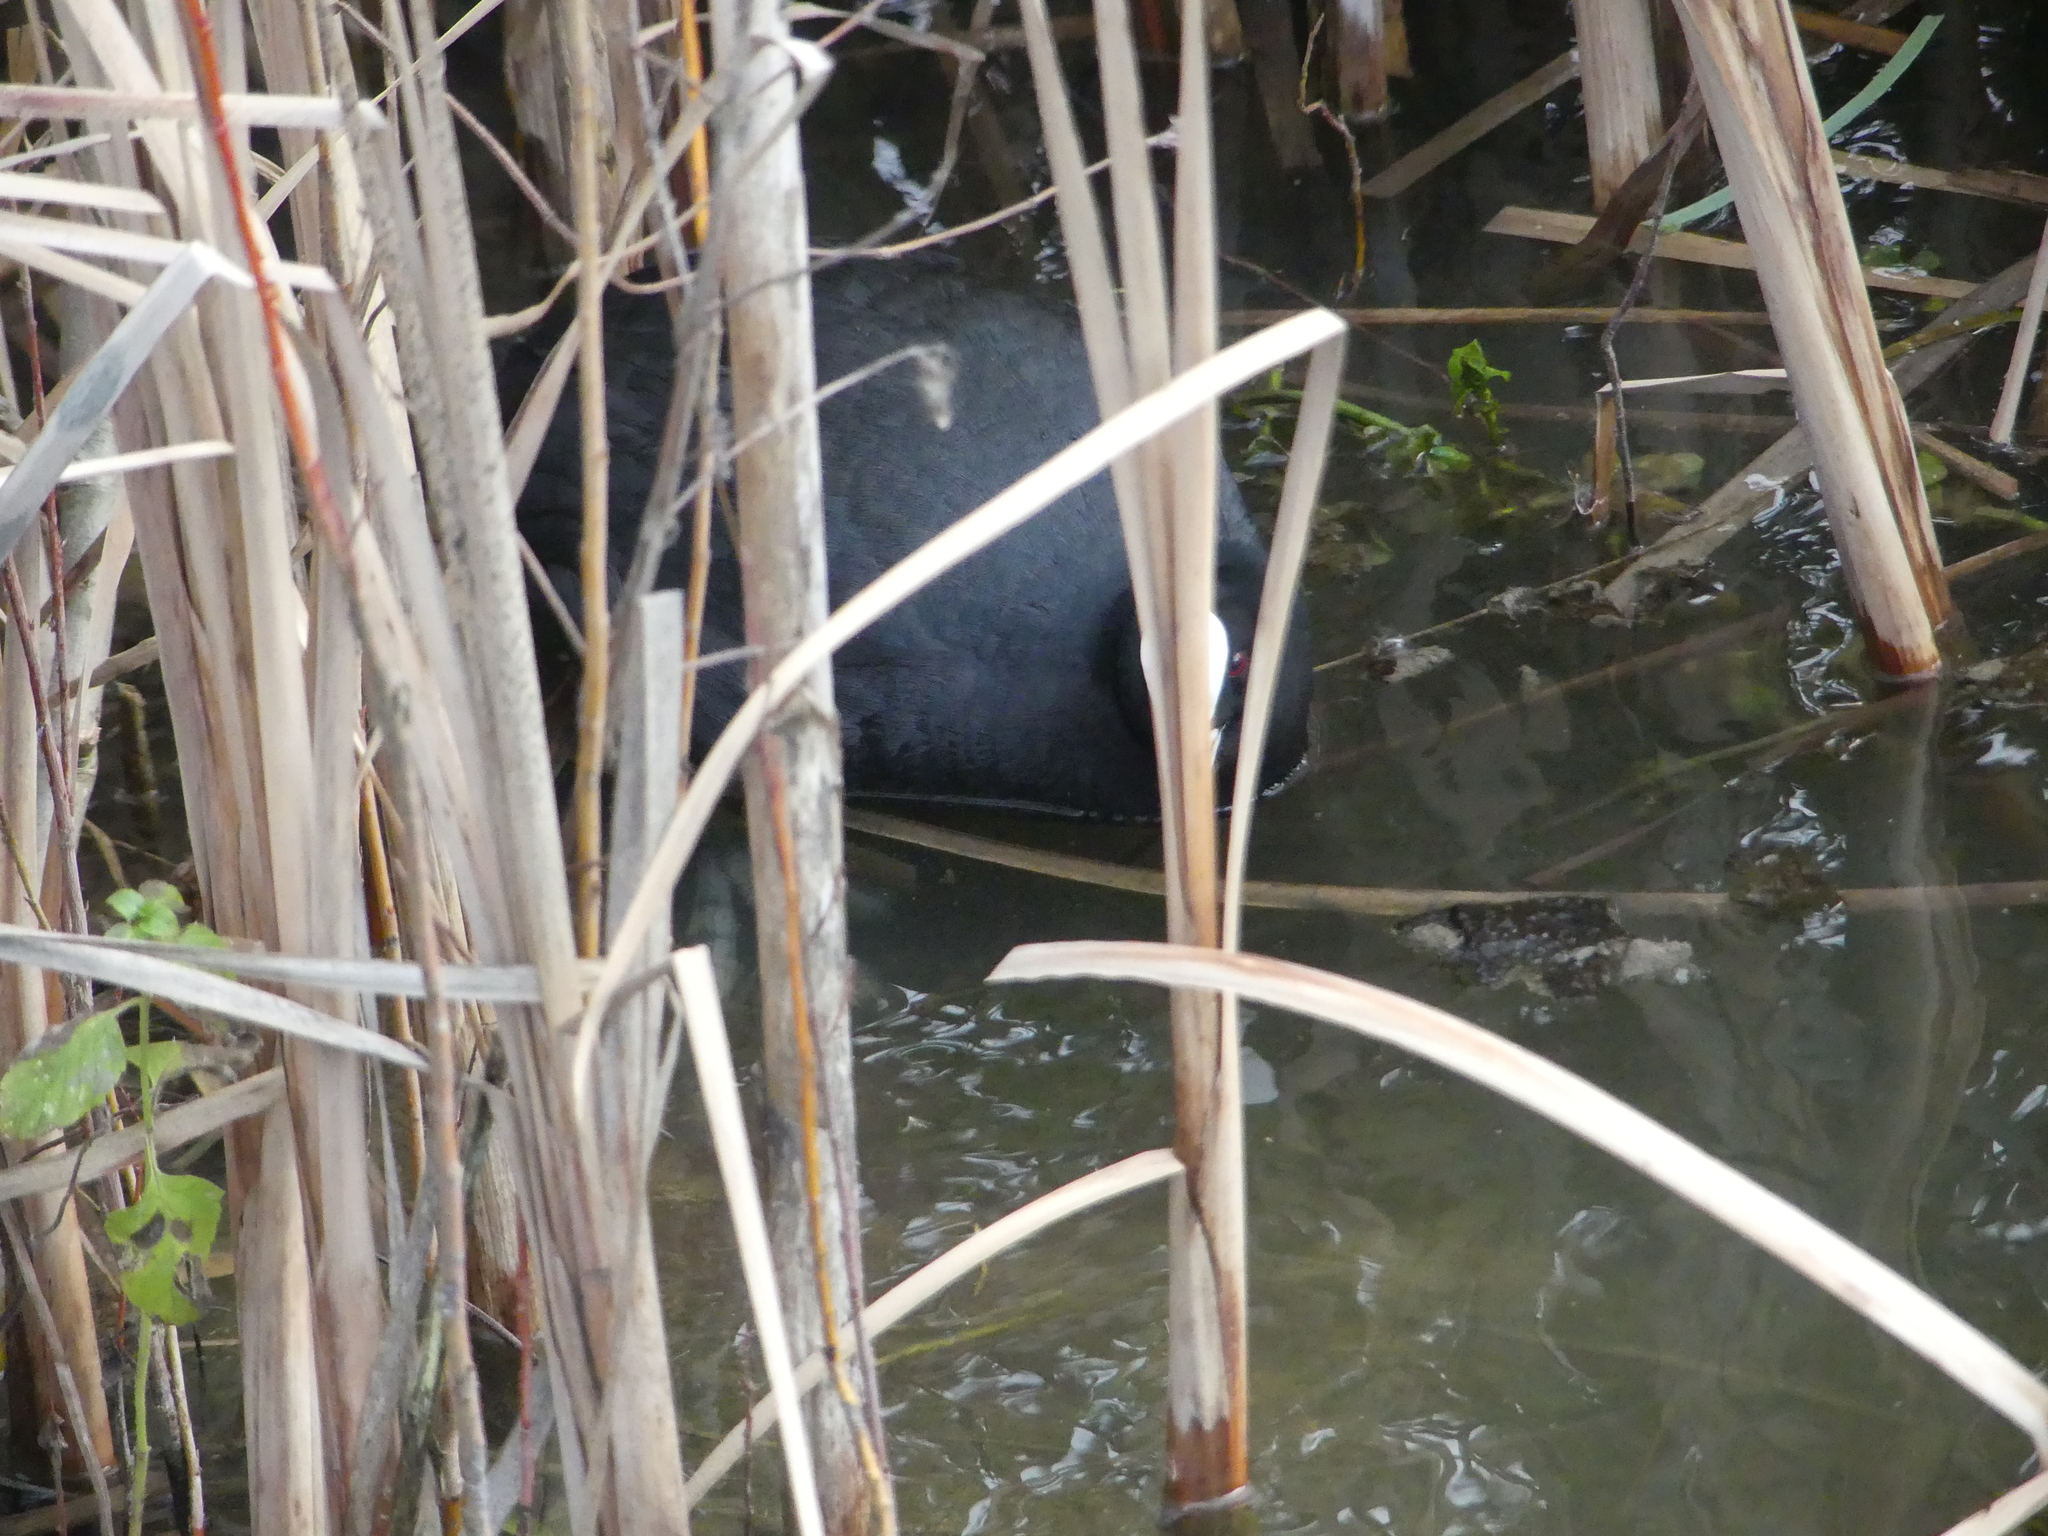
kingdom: Animalia
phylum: Chordata
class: Aves
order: Gruiformes
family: Rallidae
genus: Fulica
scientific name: Fulica atra
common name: Eurasian coot
